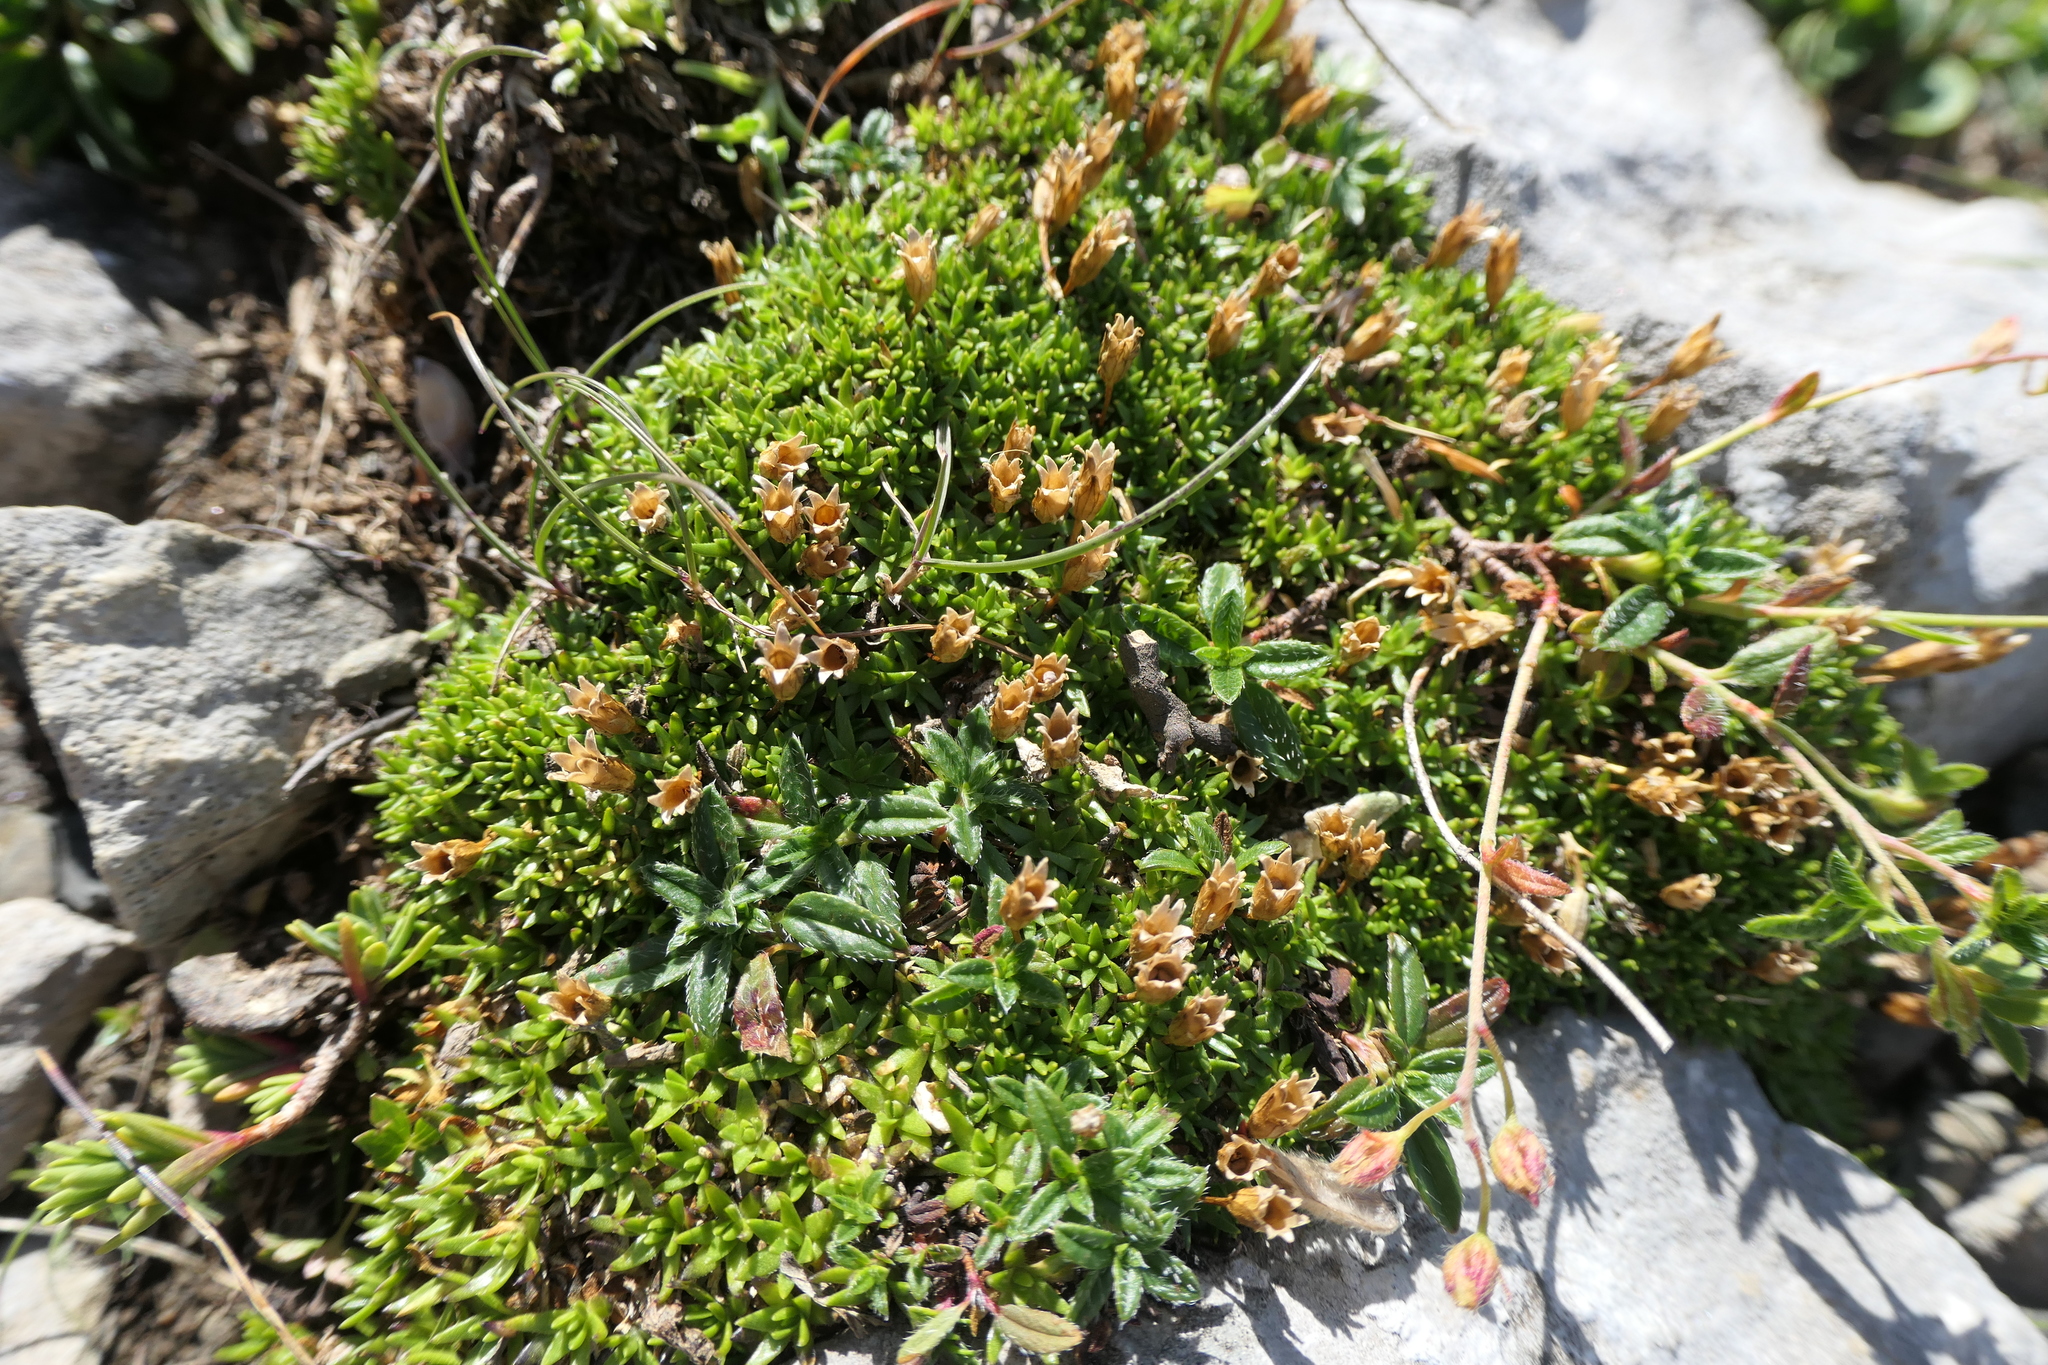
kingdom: Plantae
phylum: Tracheophyta
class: Magnoliopsida
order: Caryophyllales
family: Caryophyllaceae
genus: Silene
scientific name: Silene acaulis
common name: Moss campion
